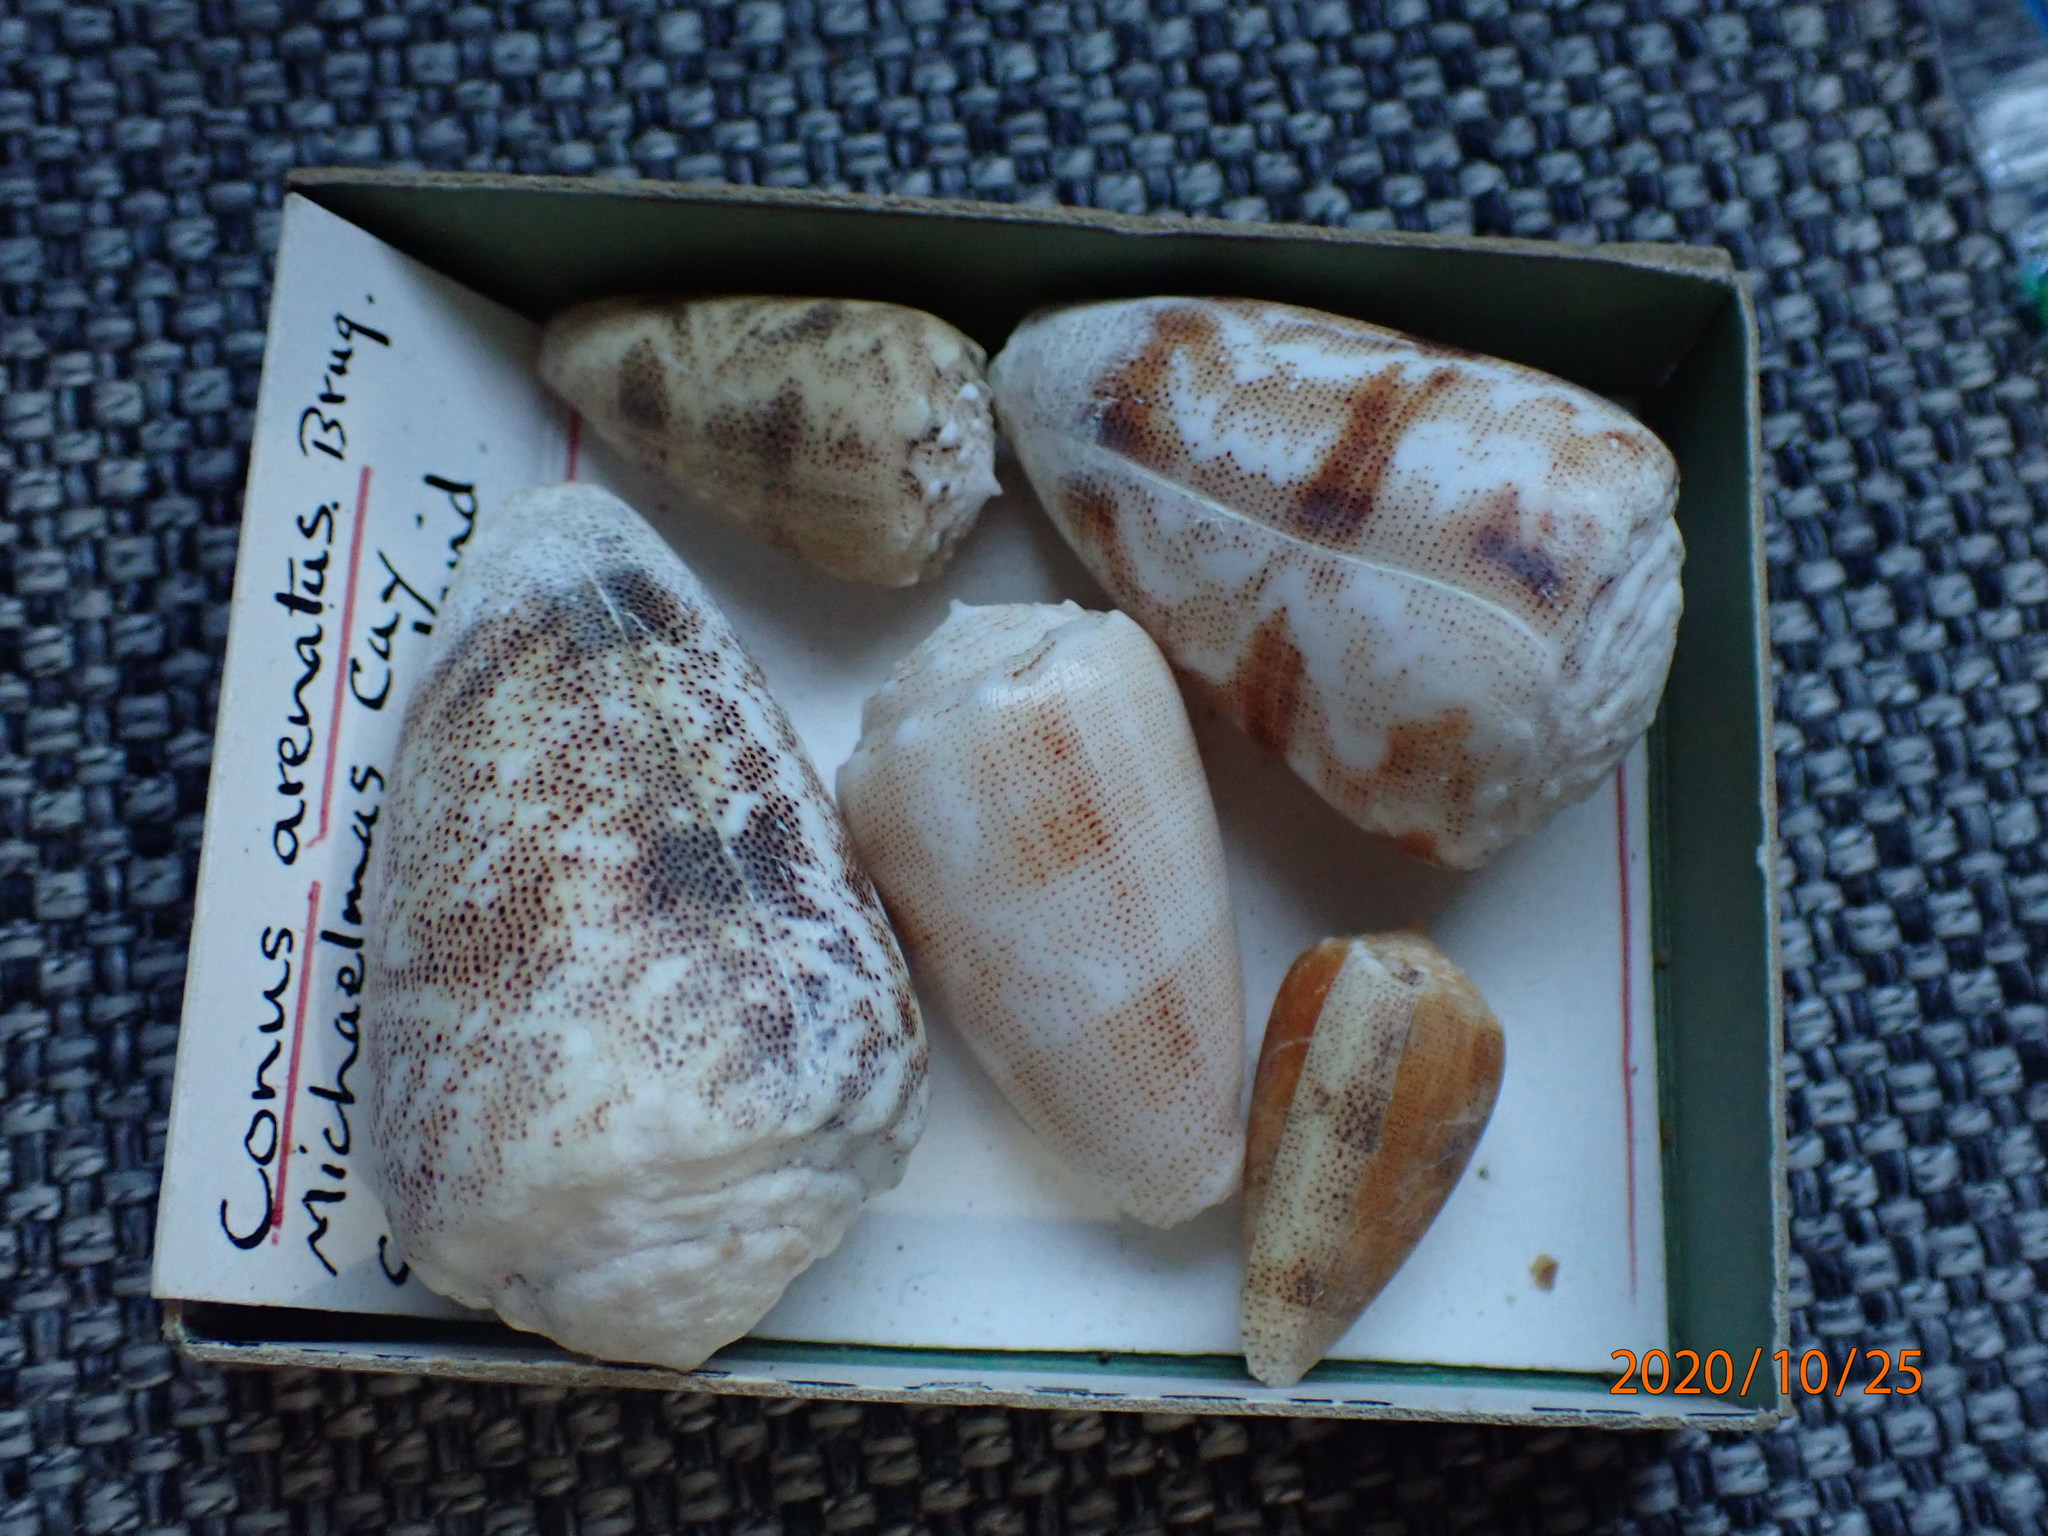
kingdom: Animalia
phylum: Mollusca
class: Gastropoda
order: Neogastropoda
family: Conidae
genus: Conus
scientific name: Conus arenatus
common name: Sand-dusted cone
